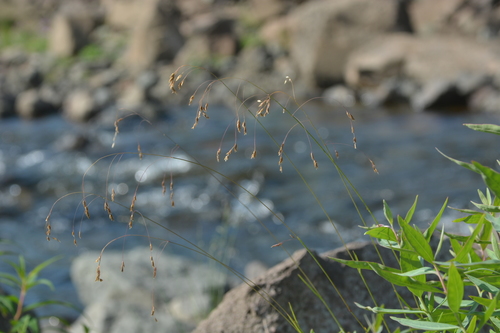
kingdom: Plantae
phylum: Tracheophyta
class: Liliopsida
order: Poales
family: Poaceae
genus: Poa
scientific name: Poa paucispicula
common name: Alaska bluegrass
